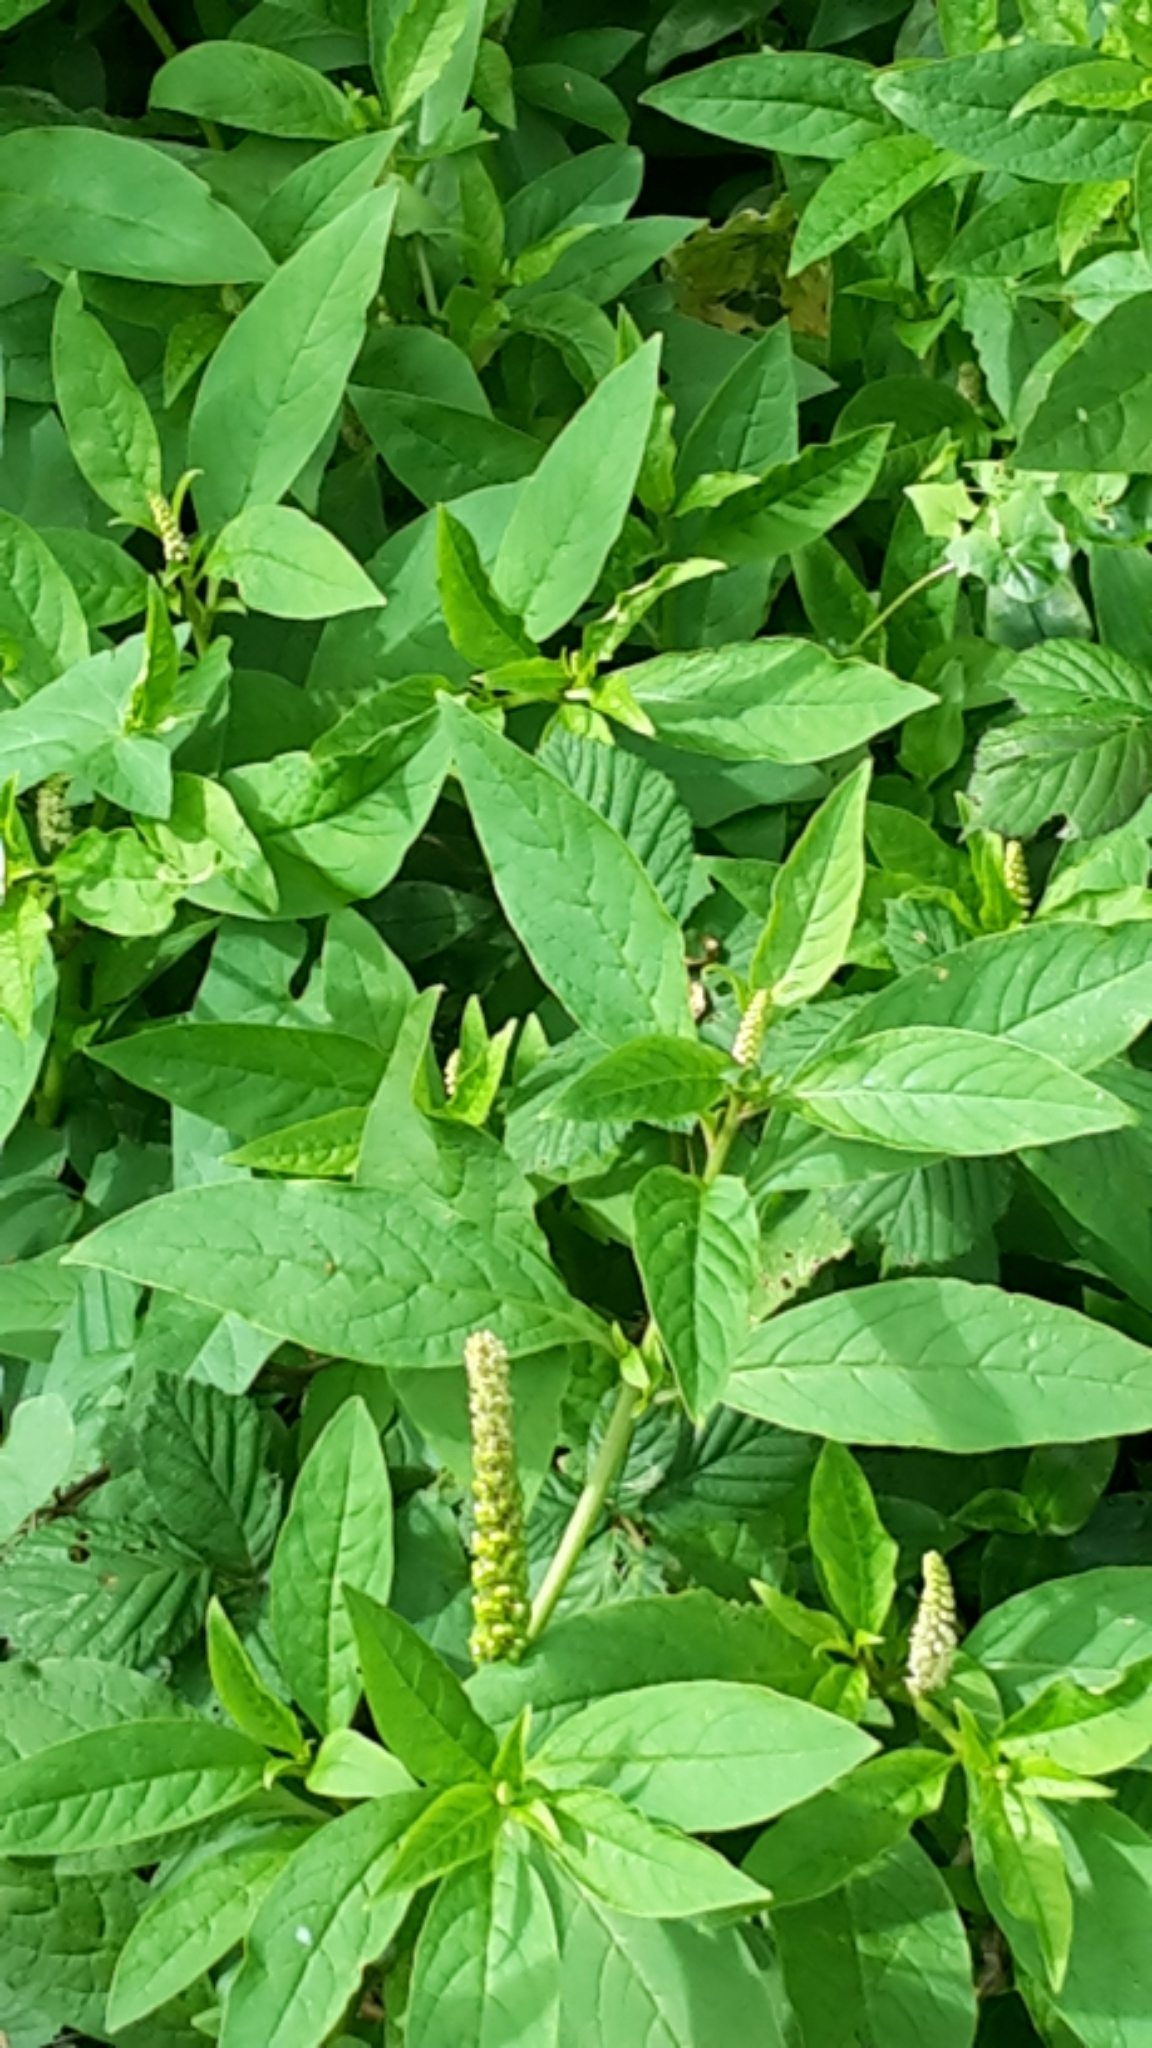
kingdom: Plantae
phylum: Tracheophyta
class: Magnoliopsida
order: Caryophyllales
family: Phytolaccaceae
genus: Phytolacca
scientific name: Phytolacca icosandra
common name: Button pokeweed
